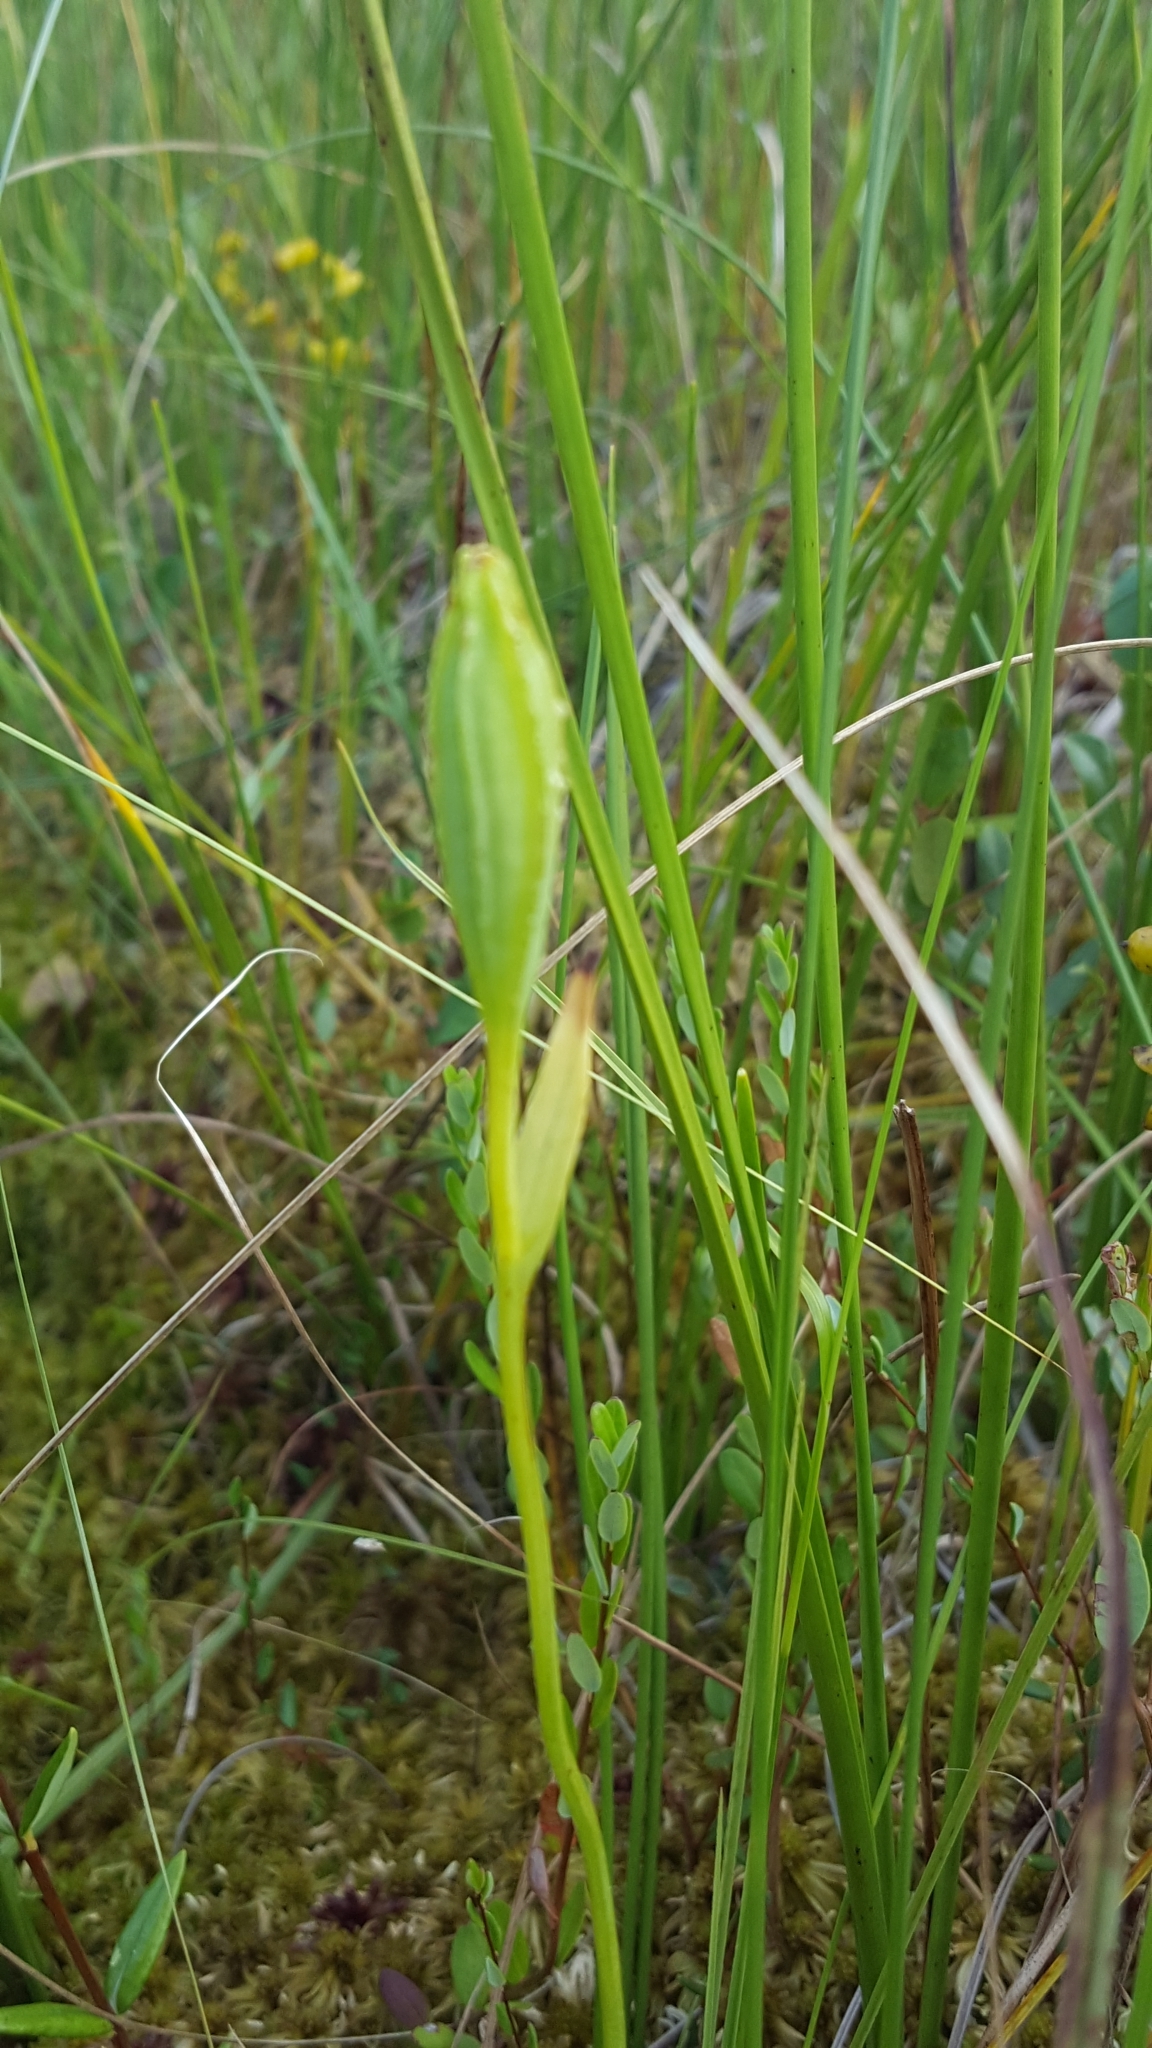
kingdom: Plantae
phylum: Tracheophyta
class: Liliopsida
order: Asparagales
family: Orchidaceae
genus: Pogonia
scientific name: Pogonia ophioglossoides
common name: Rose pogonia
